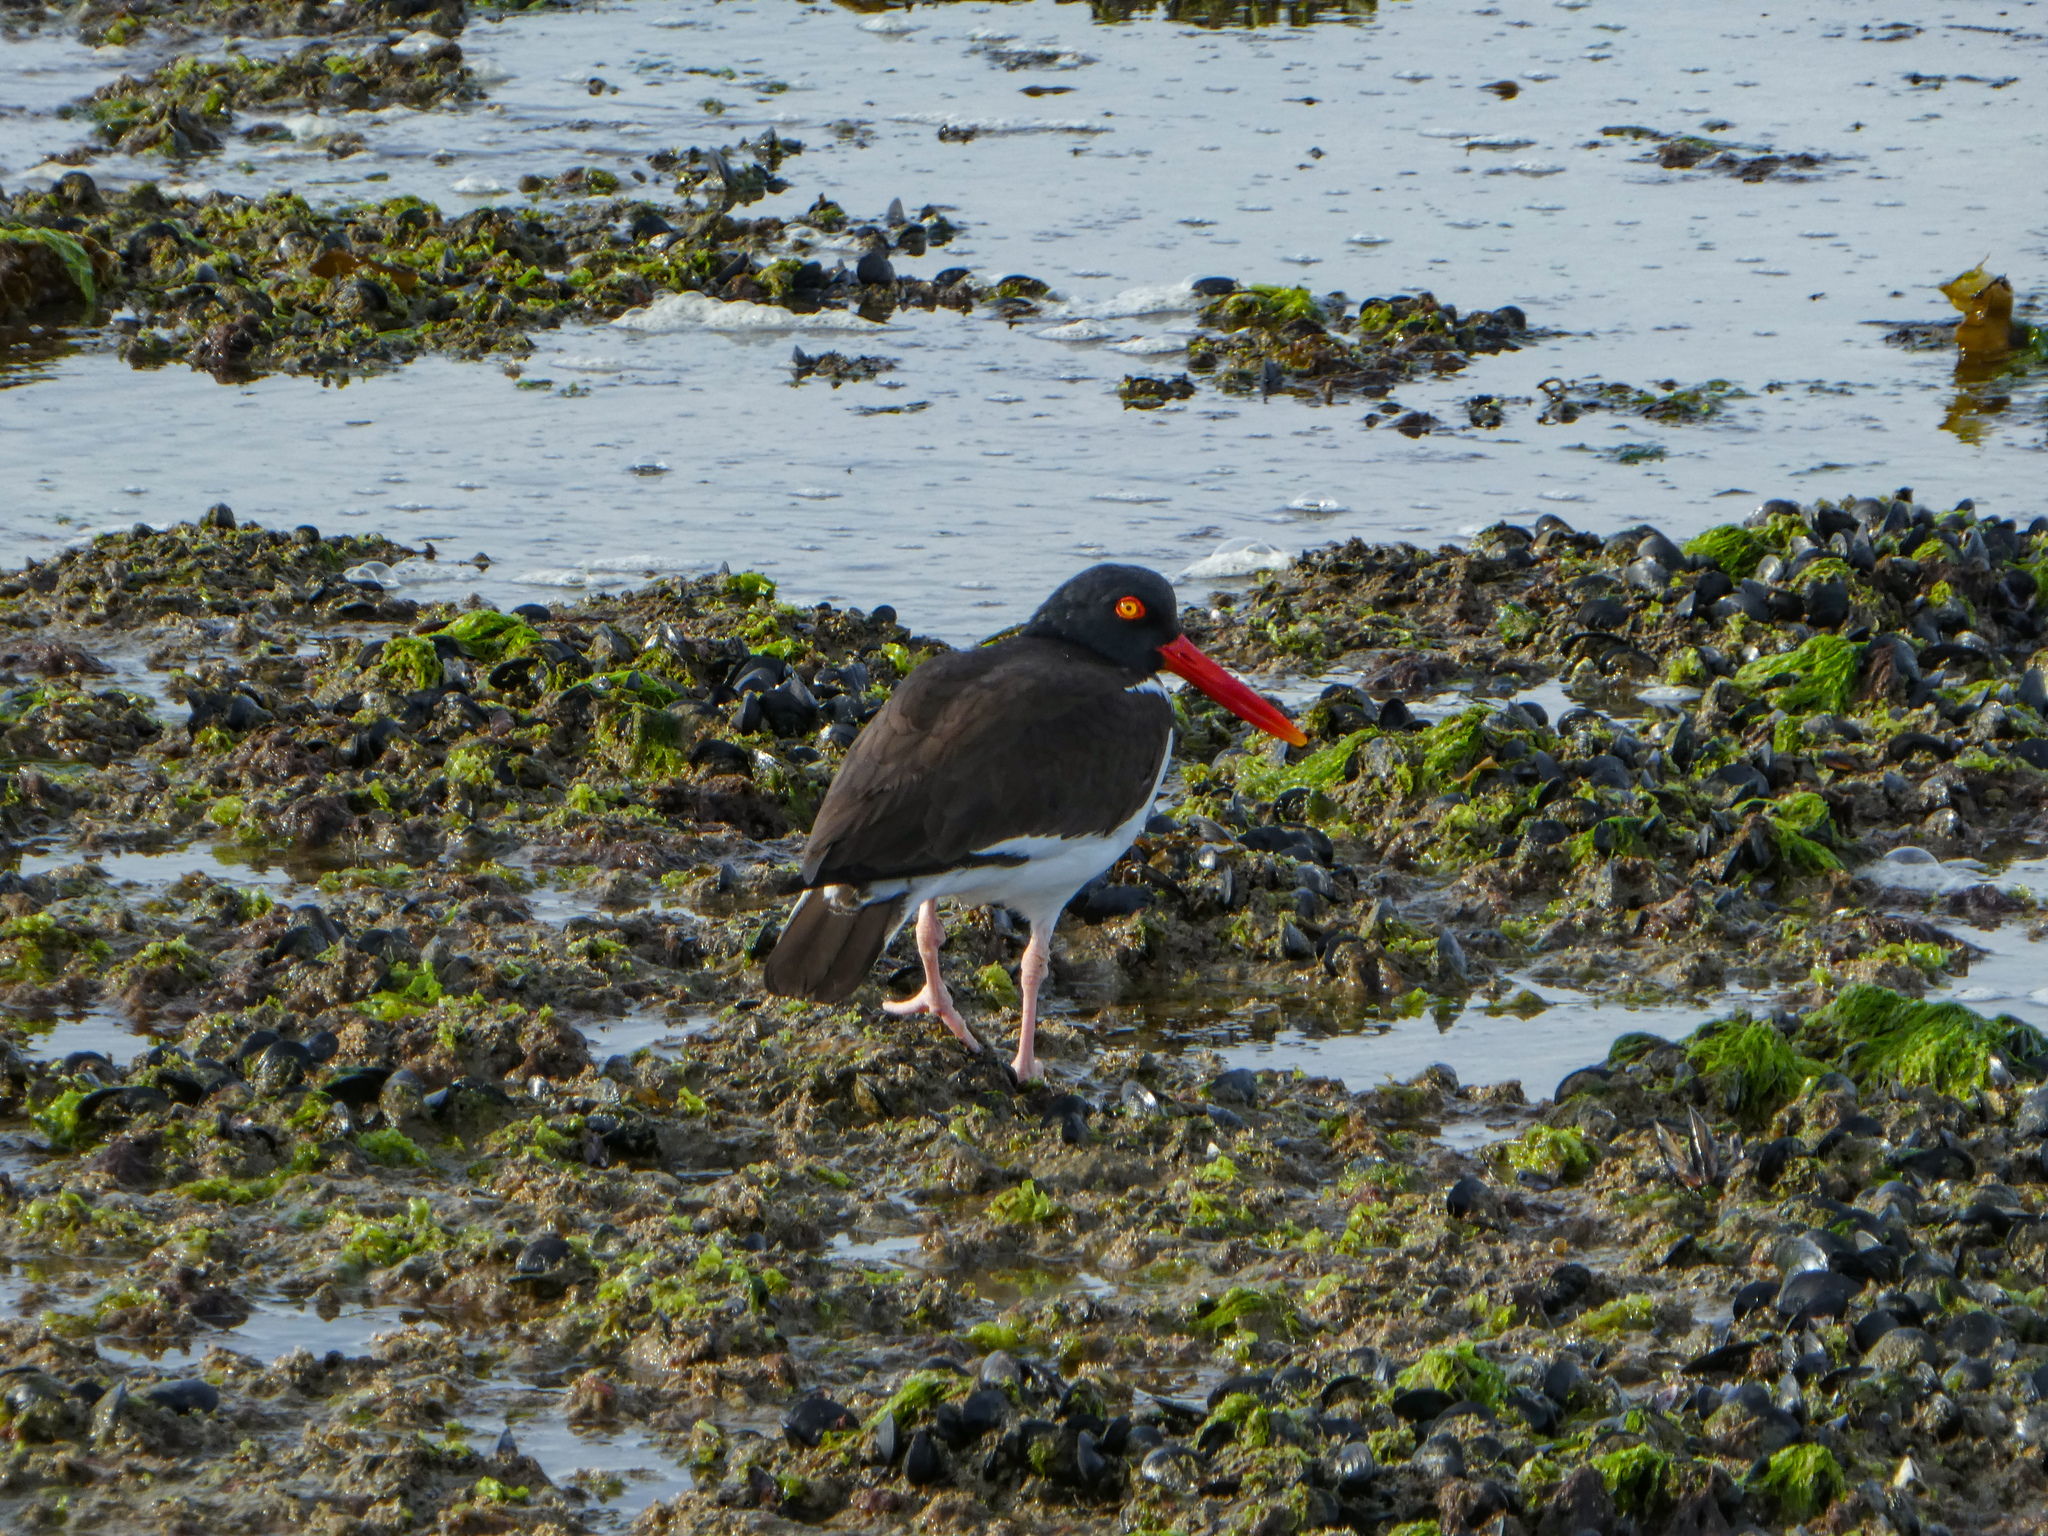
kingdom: Animalia
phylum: Chordata
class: Aves
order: Charadriiformes
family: Haematopodidae
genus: Haematopus
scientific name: Haematopus palliatus
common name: American oystercatcher
